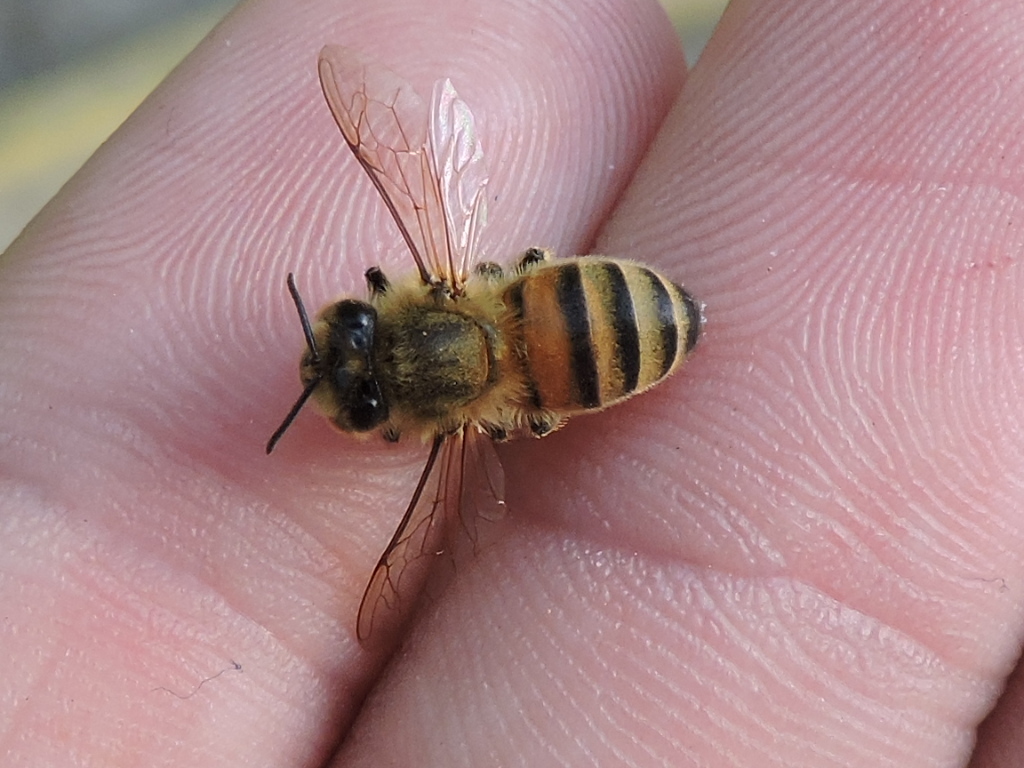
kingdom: Animalia
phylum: Arthropoda
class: Insecta
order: Hymenoptera
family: Apidae
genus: Apis
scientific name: Apis mellifera
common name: Honey bee
